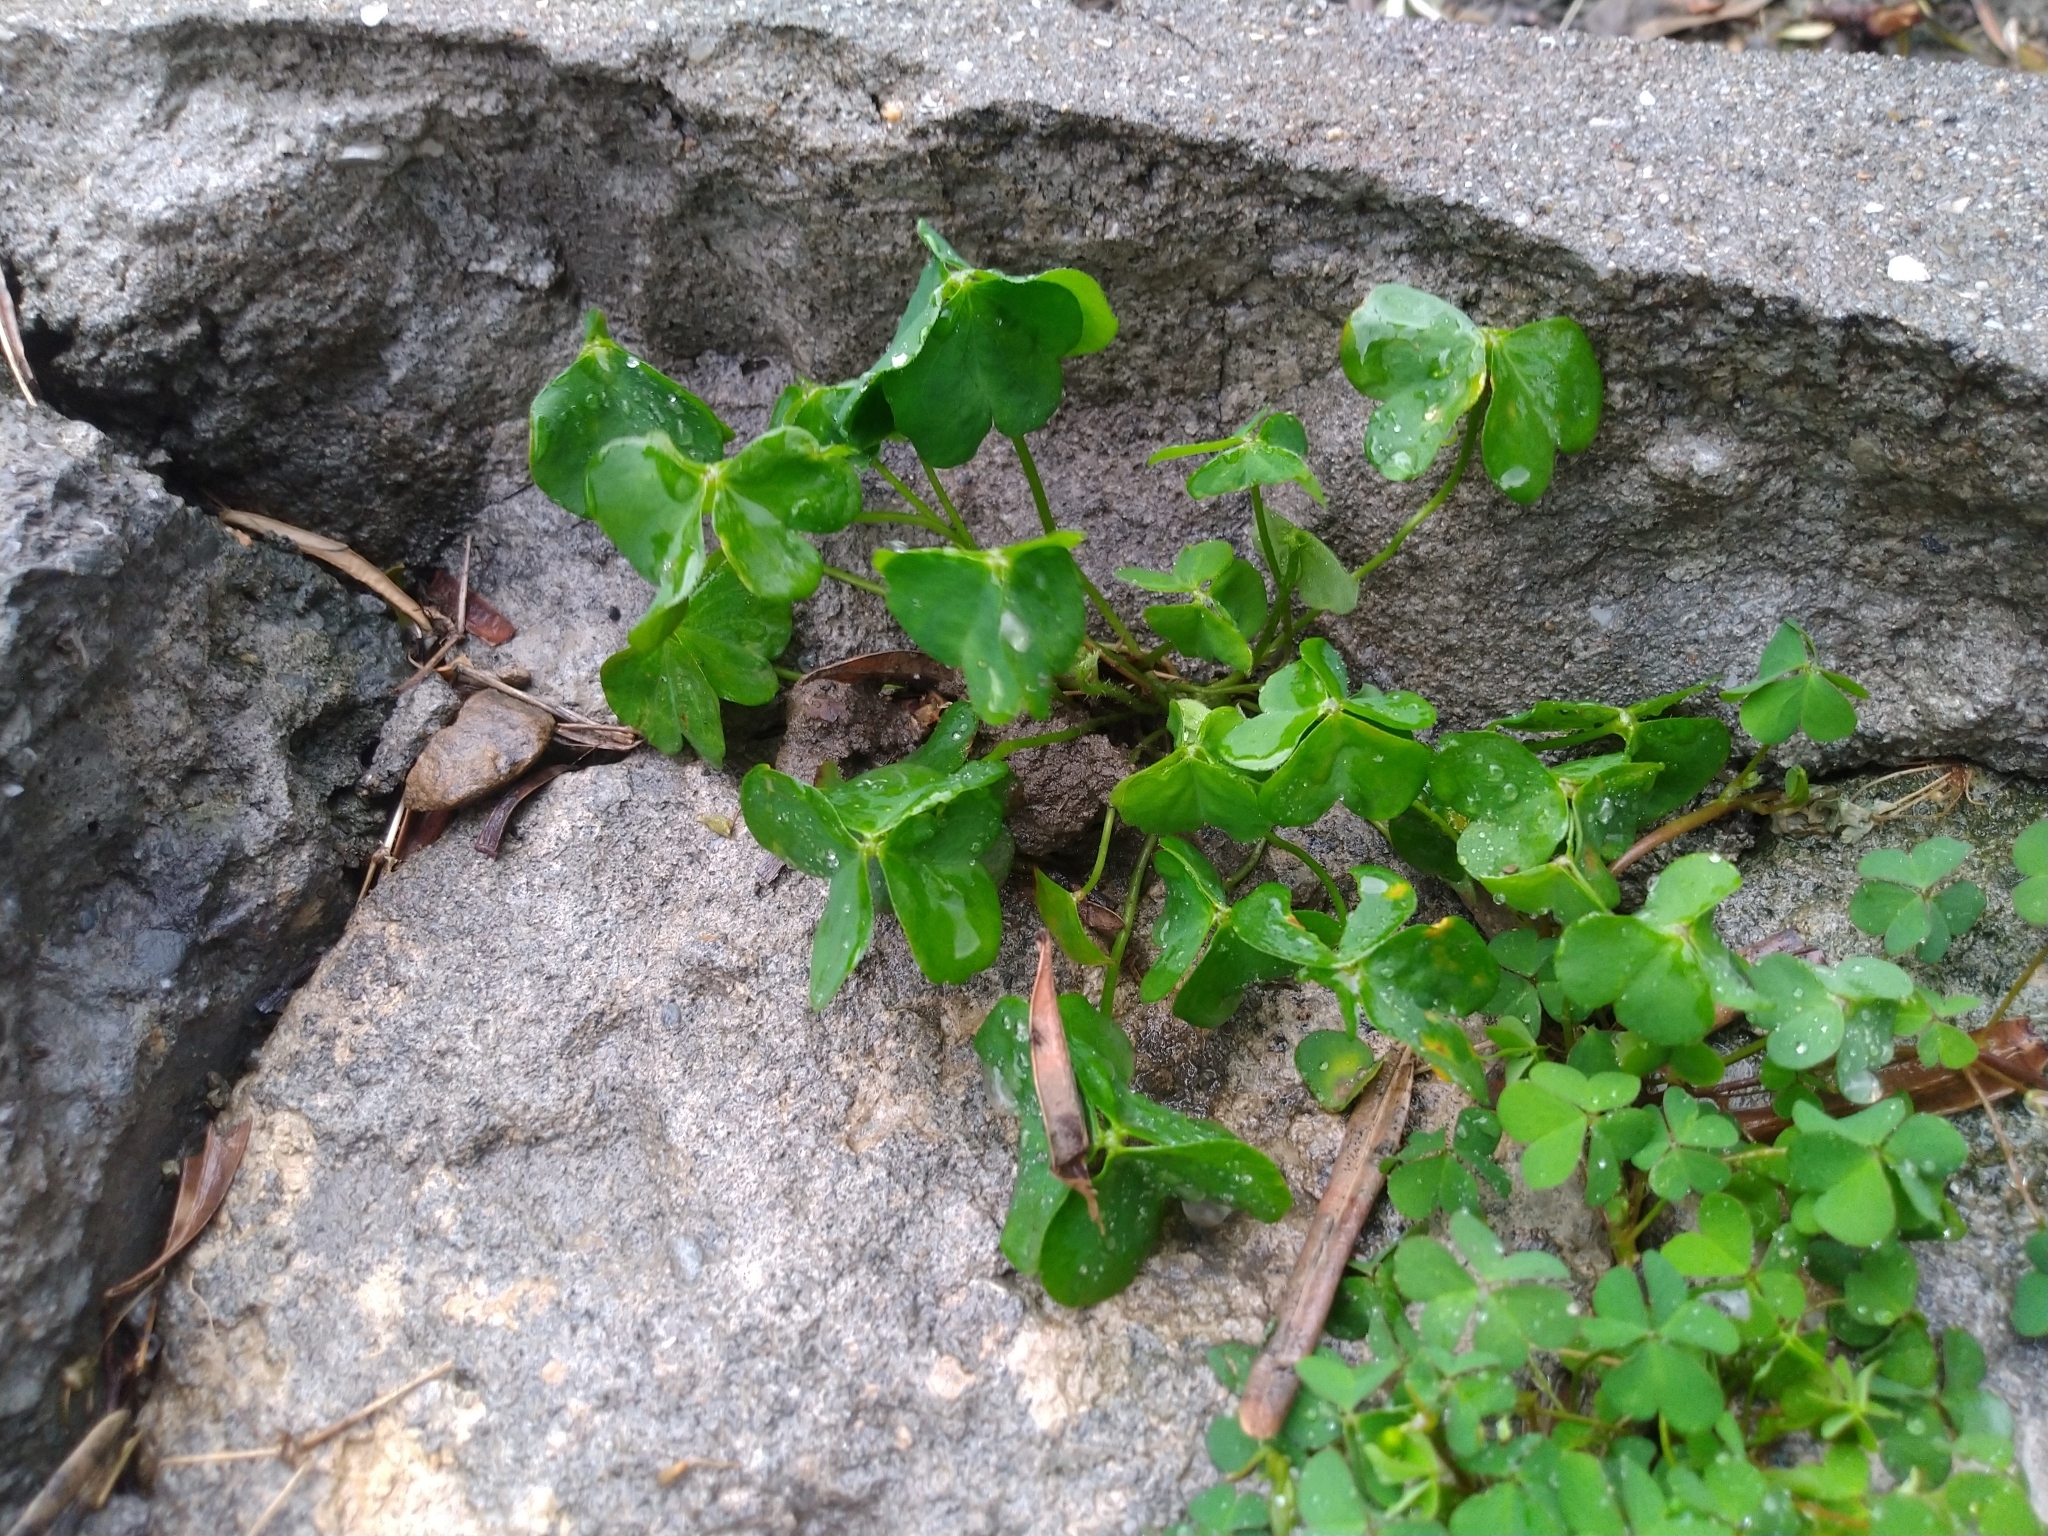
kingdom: Plantae
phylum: Tracheophyta
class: Magnoliopsida
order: Oxalidales
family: Oxalidaceae
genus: Oxalis
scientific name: Oxalis debilis
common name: Large-flowered pink-sorrel
